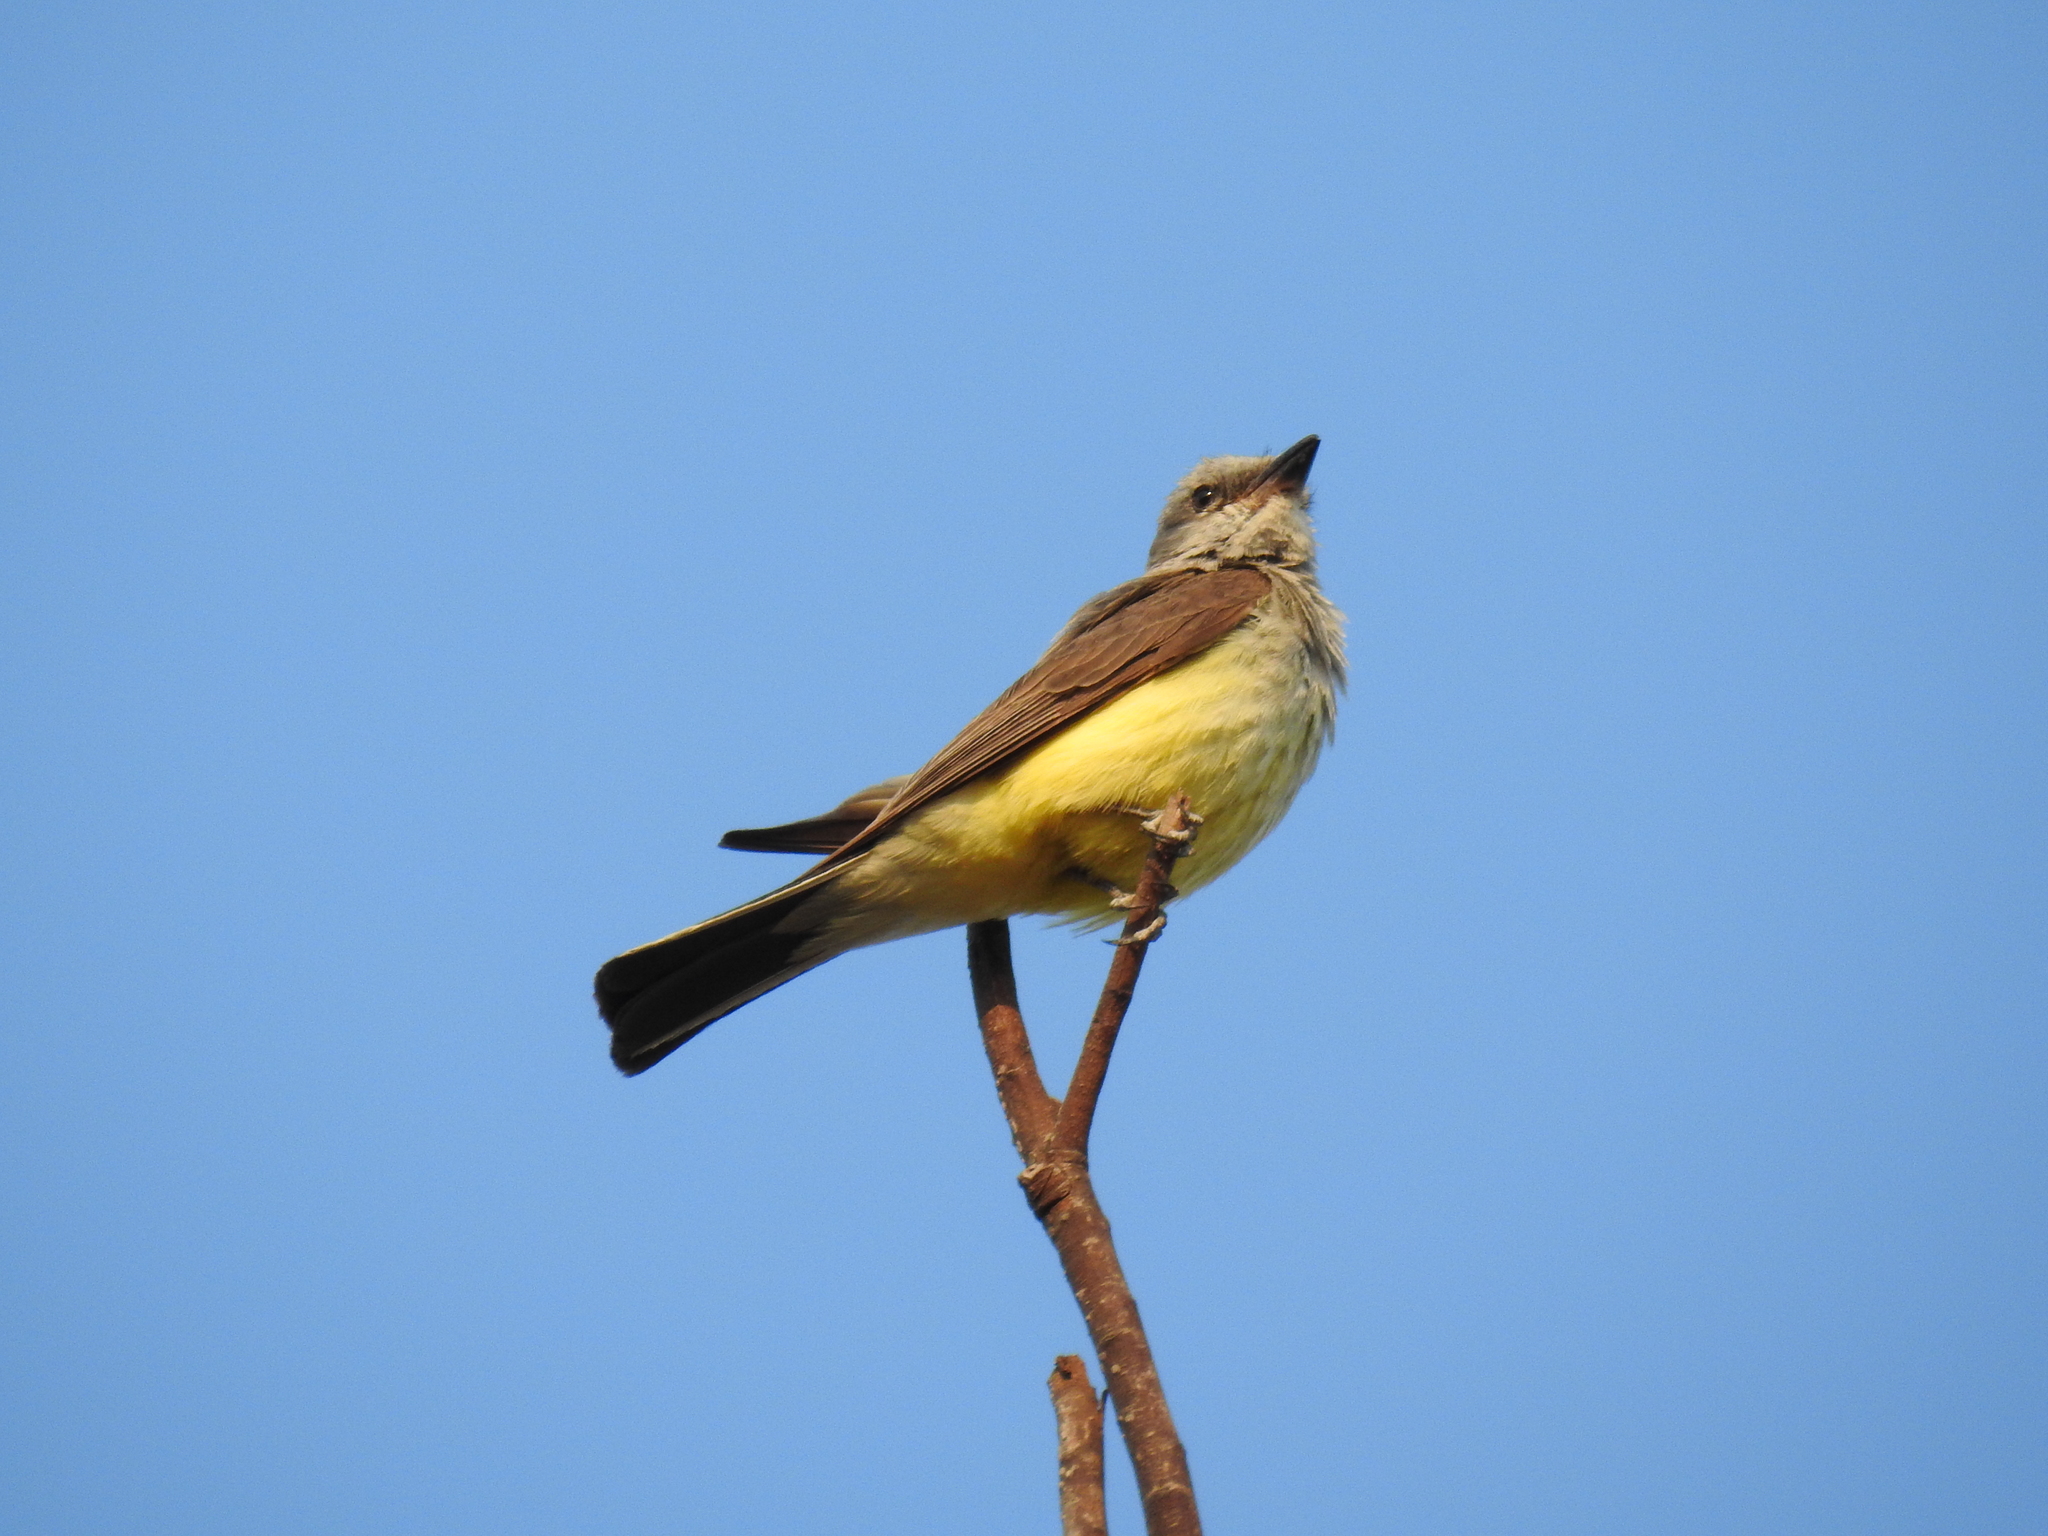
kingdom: Animalia
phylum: Chordata
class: Aves
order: Passeriformes
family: Tyrannidae
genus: Tyrannus
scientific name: Tyrannus verticalis
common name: Western kingbird
